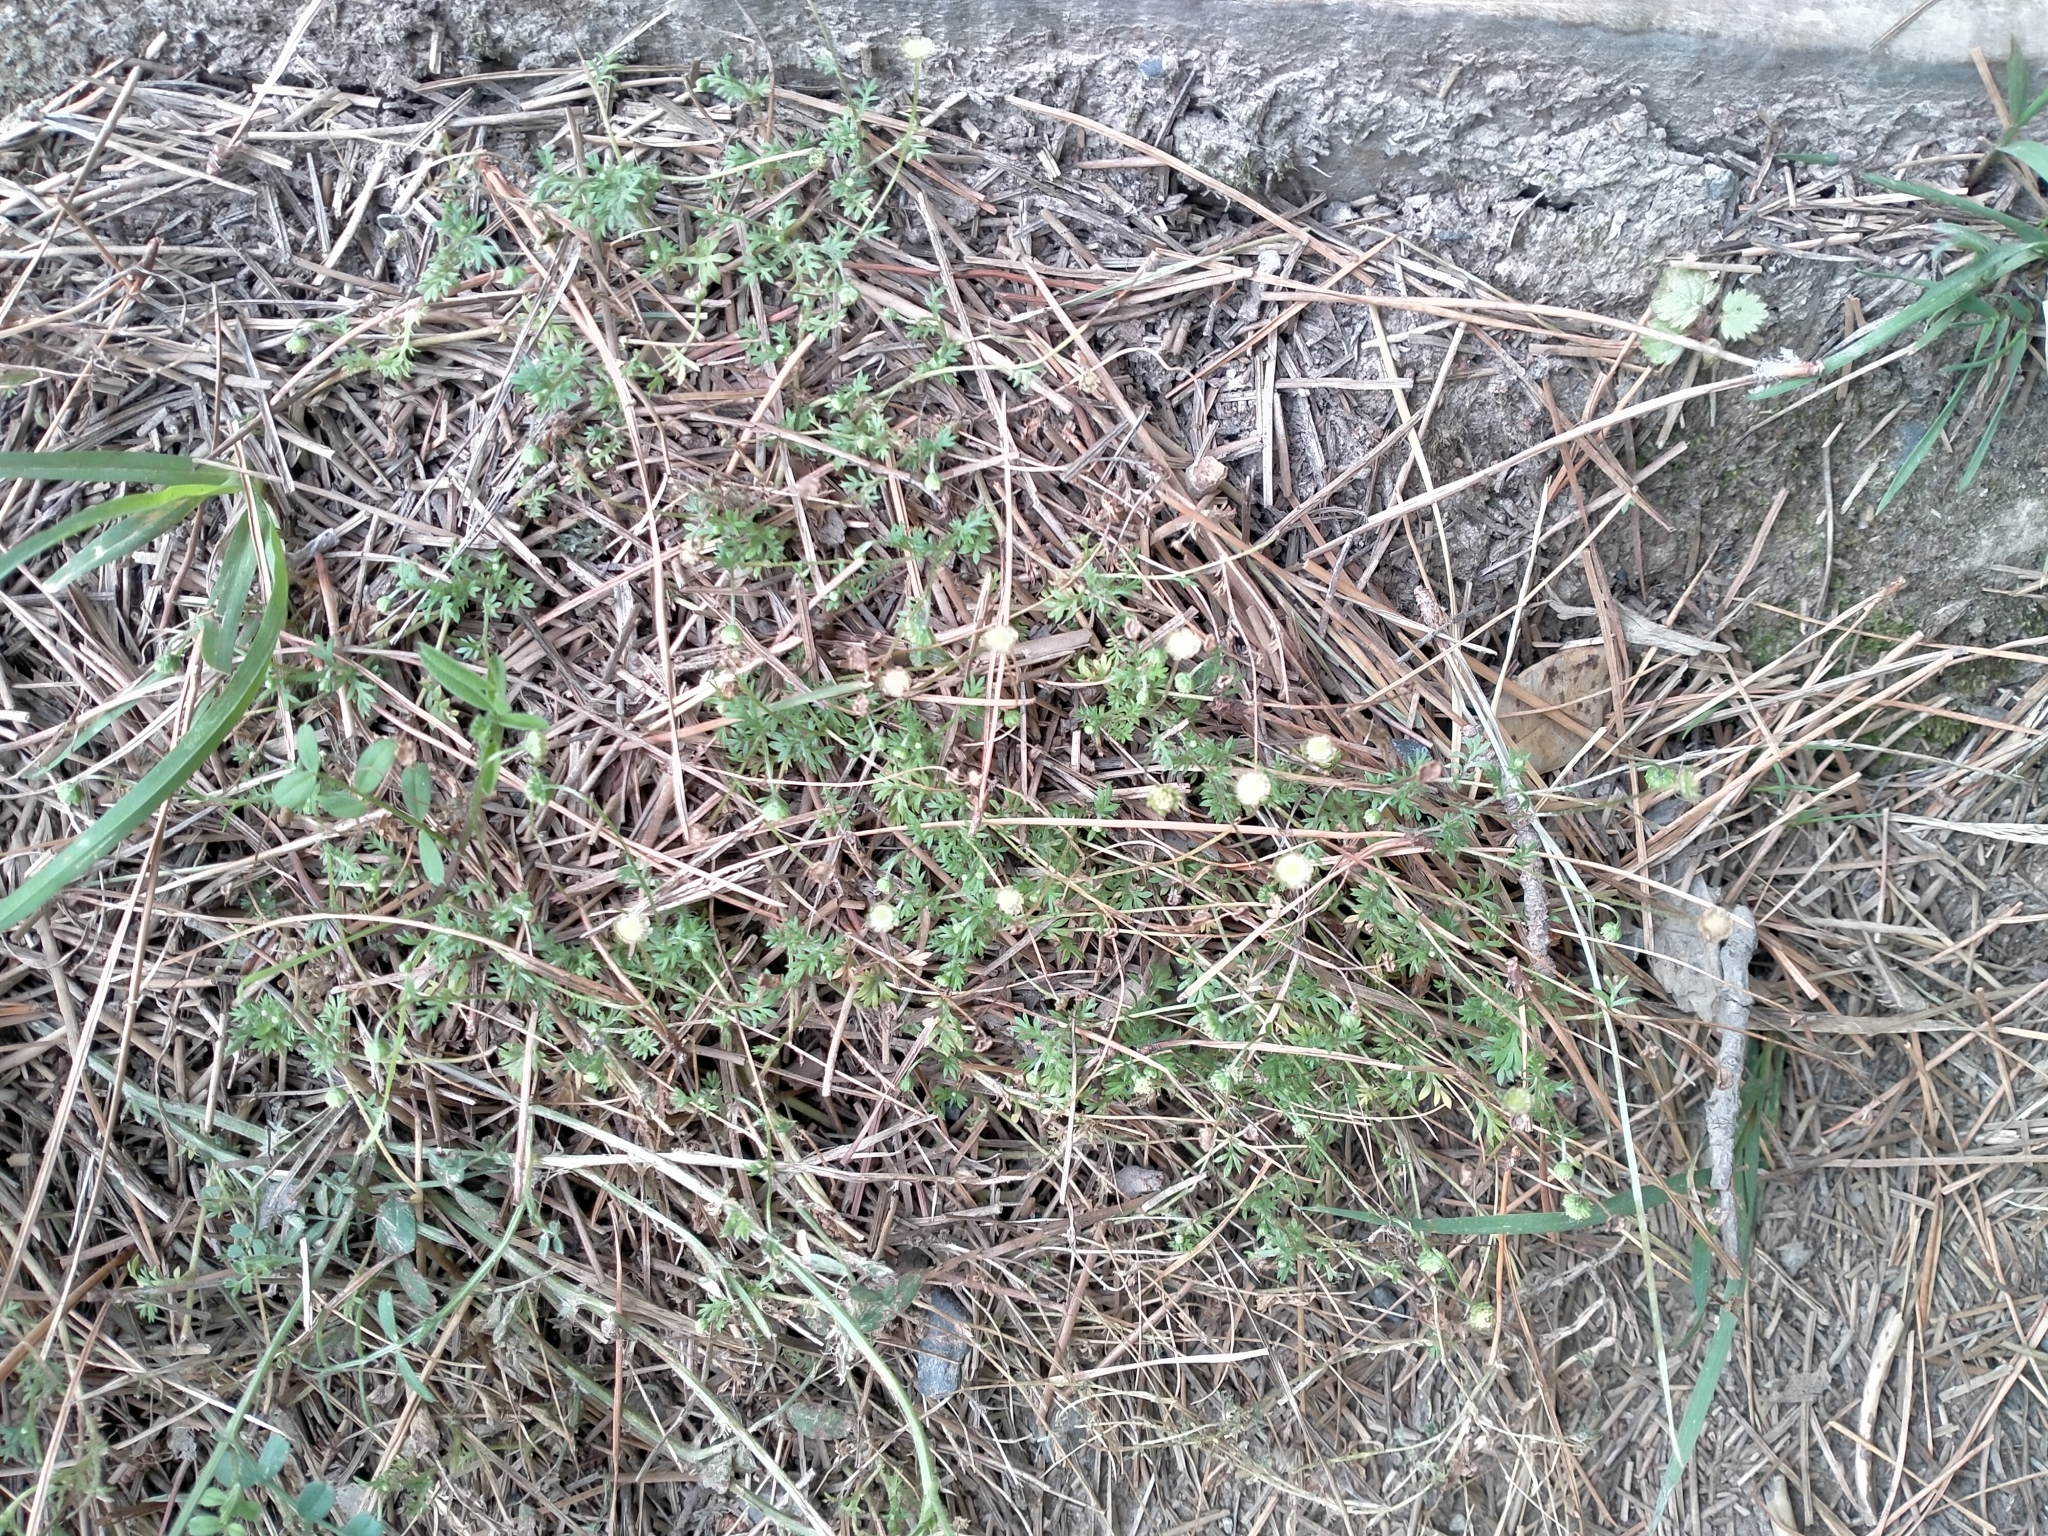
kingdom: Plantae
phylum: Tracheophyta
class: Magnoliopsida
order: Asterales
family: Asteraceae
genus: Cotula
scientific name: Cotula australis
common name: Australian waterbuttons
